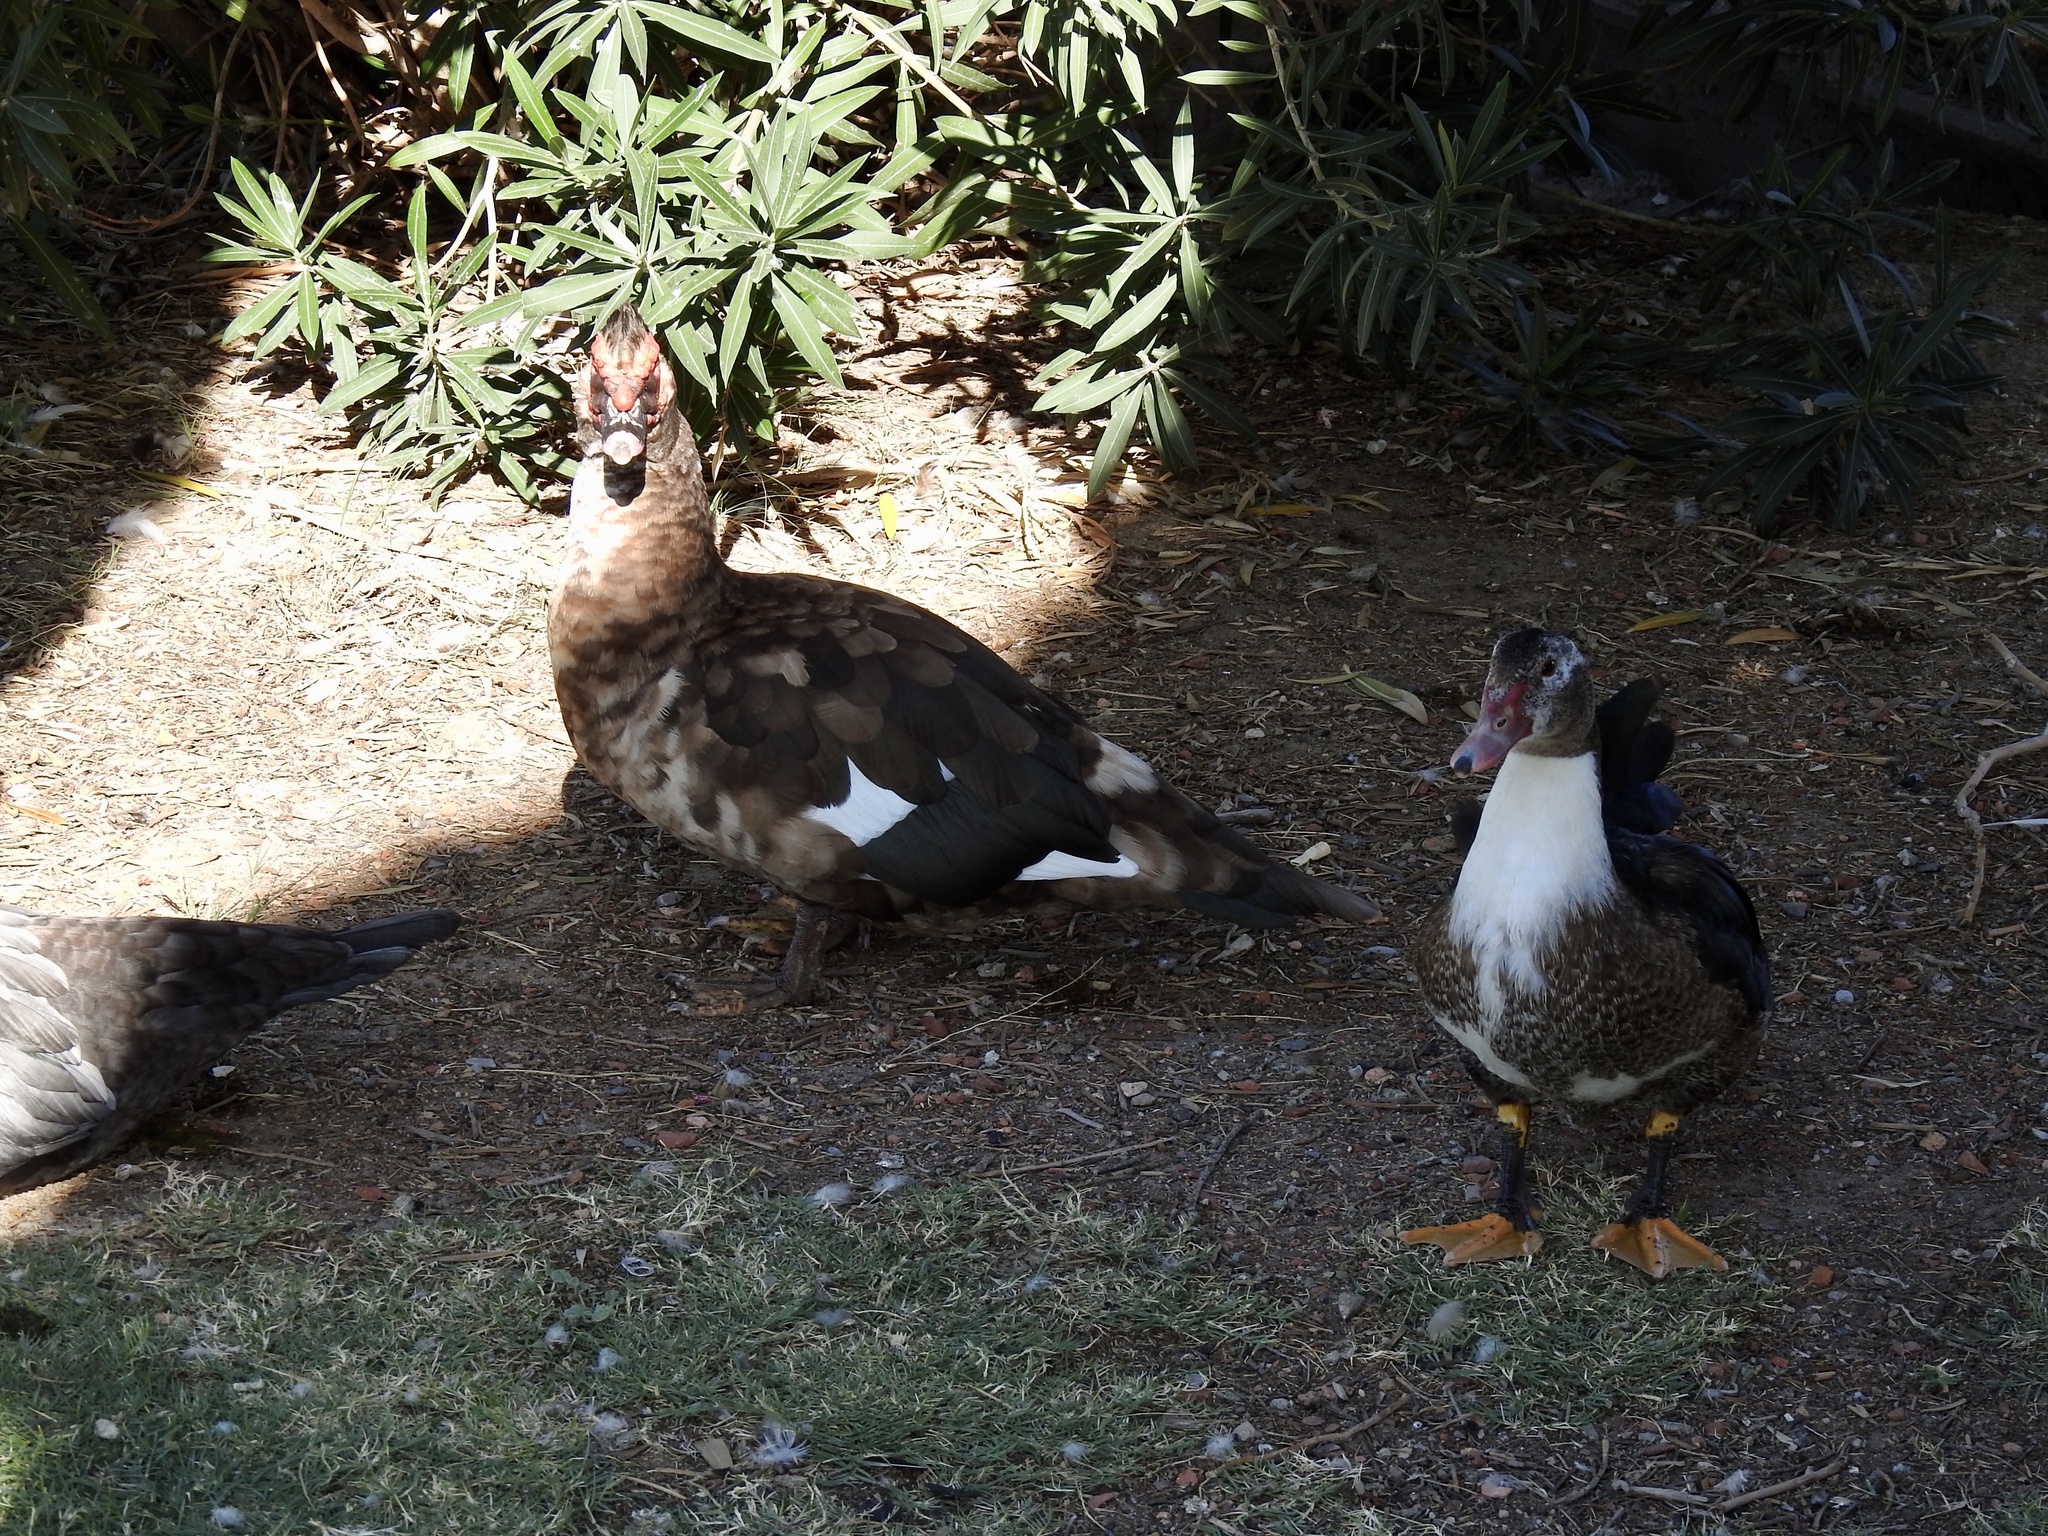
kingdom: Animalia
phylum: Chordata
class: Aves
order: Anseriformes
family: Anatidae
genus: Cairina
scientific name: Cairina moschata
